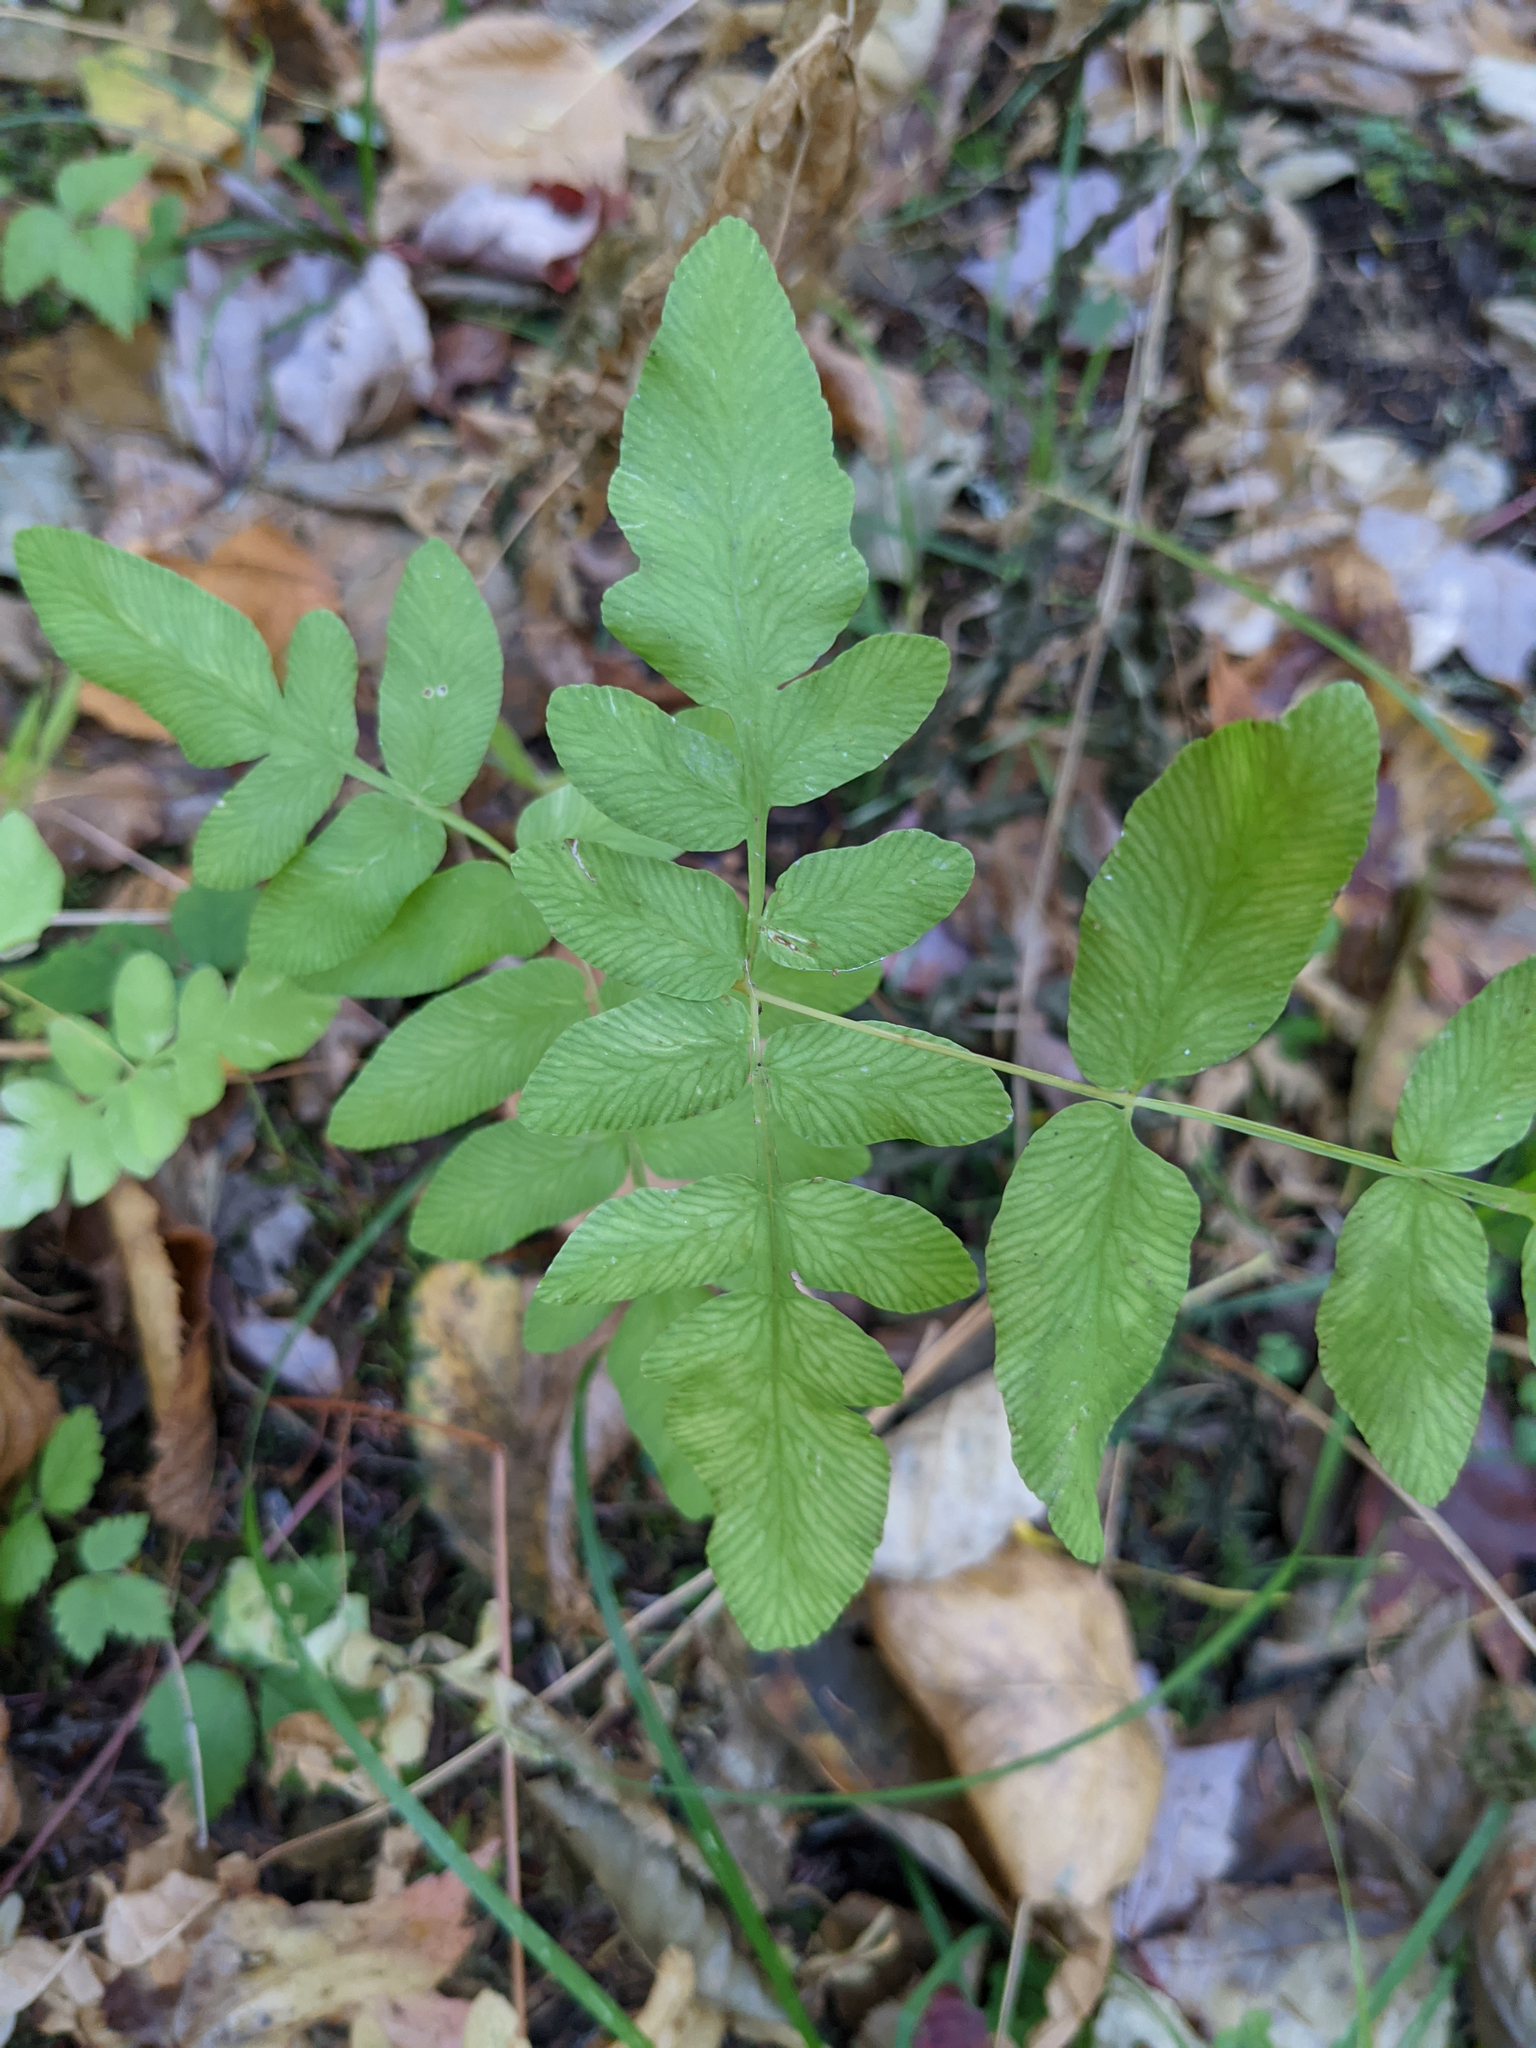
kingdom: Plantae
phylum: Tracheophyta
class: Polypodiopsida
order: Osmundales
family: Osmundaceae
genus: Osmunda
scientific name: Osmunda spectabilis
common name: American royal fern
